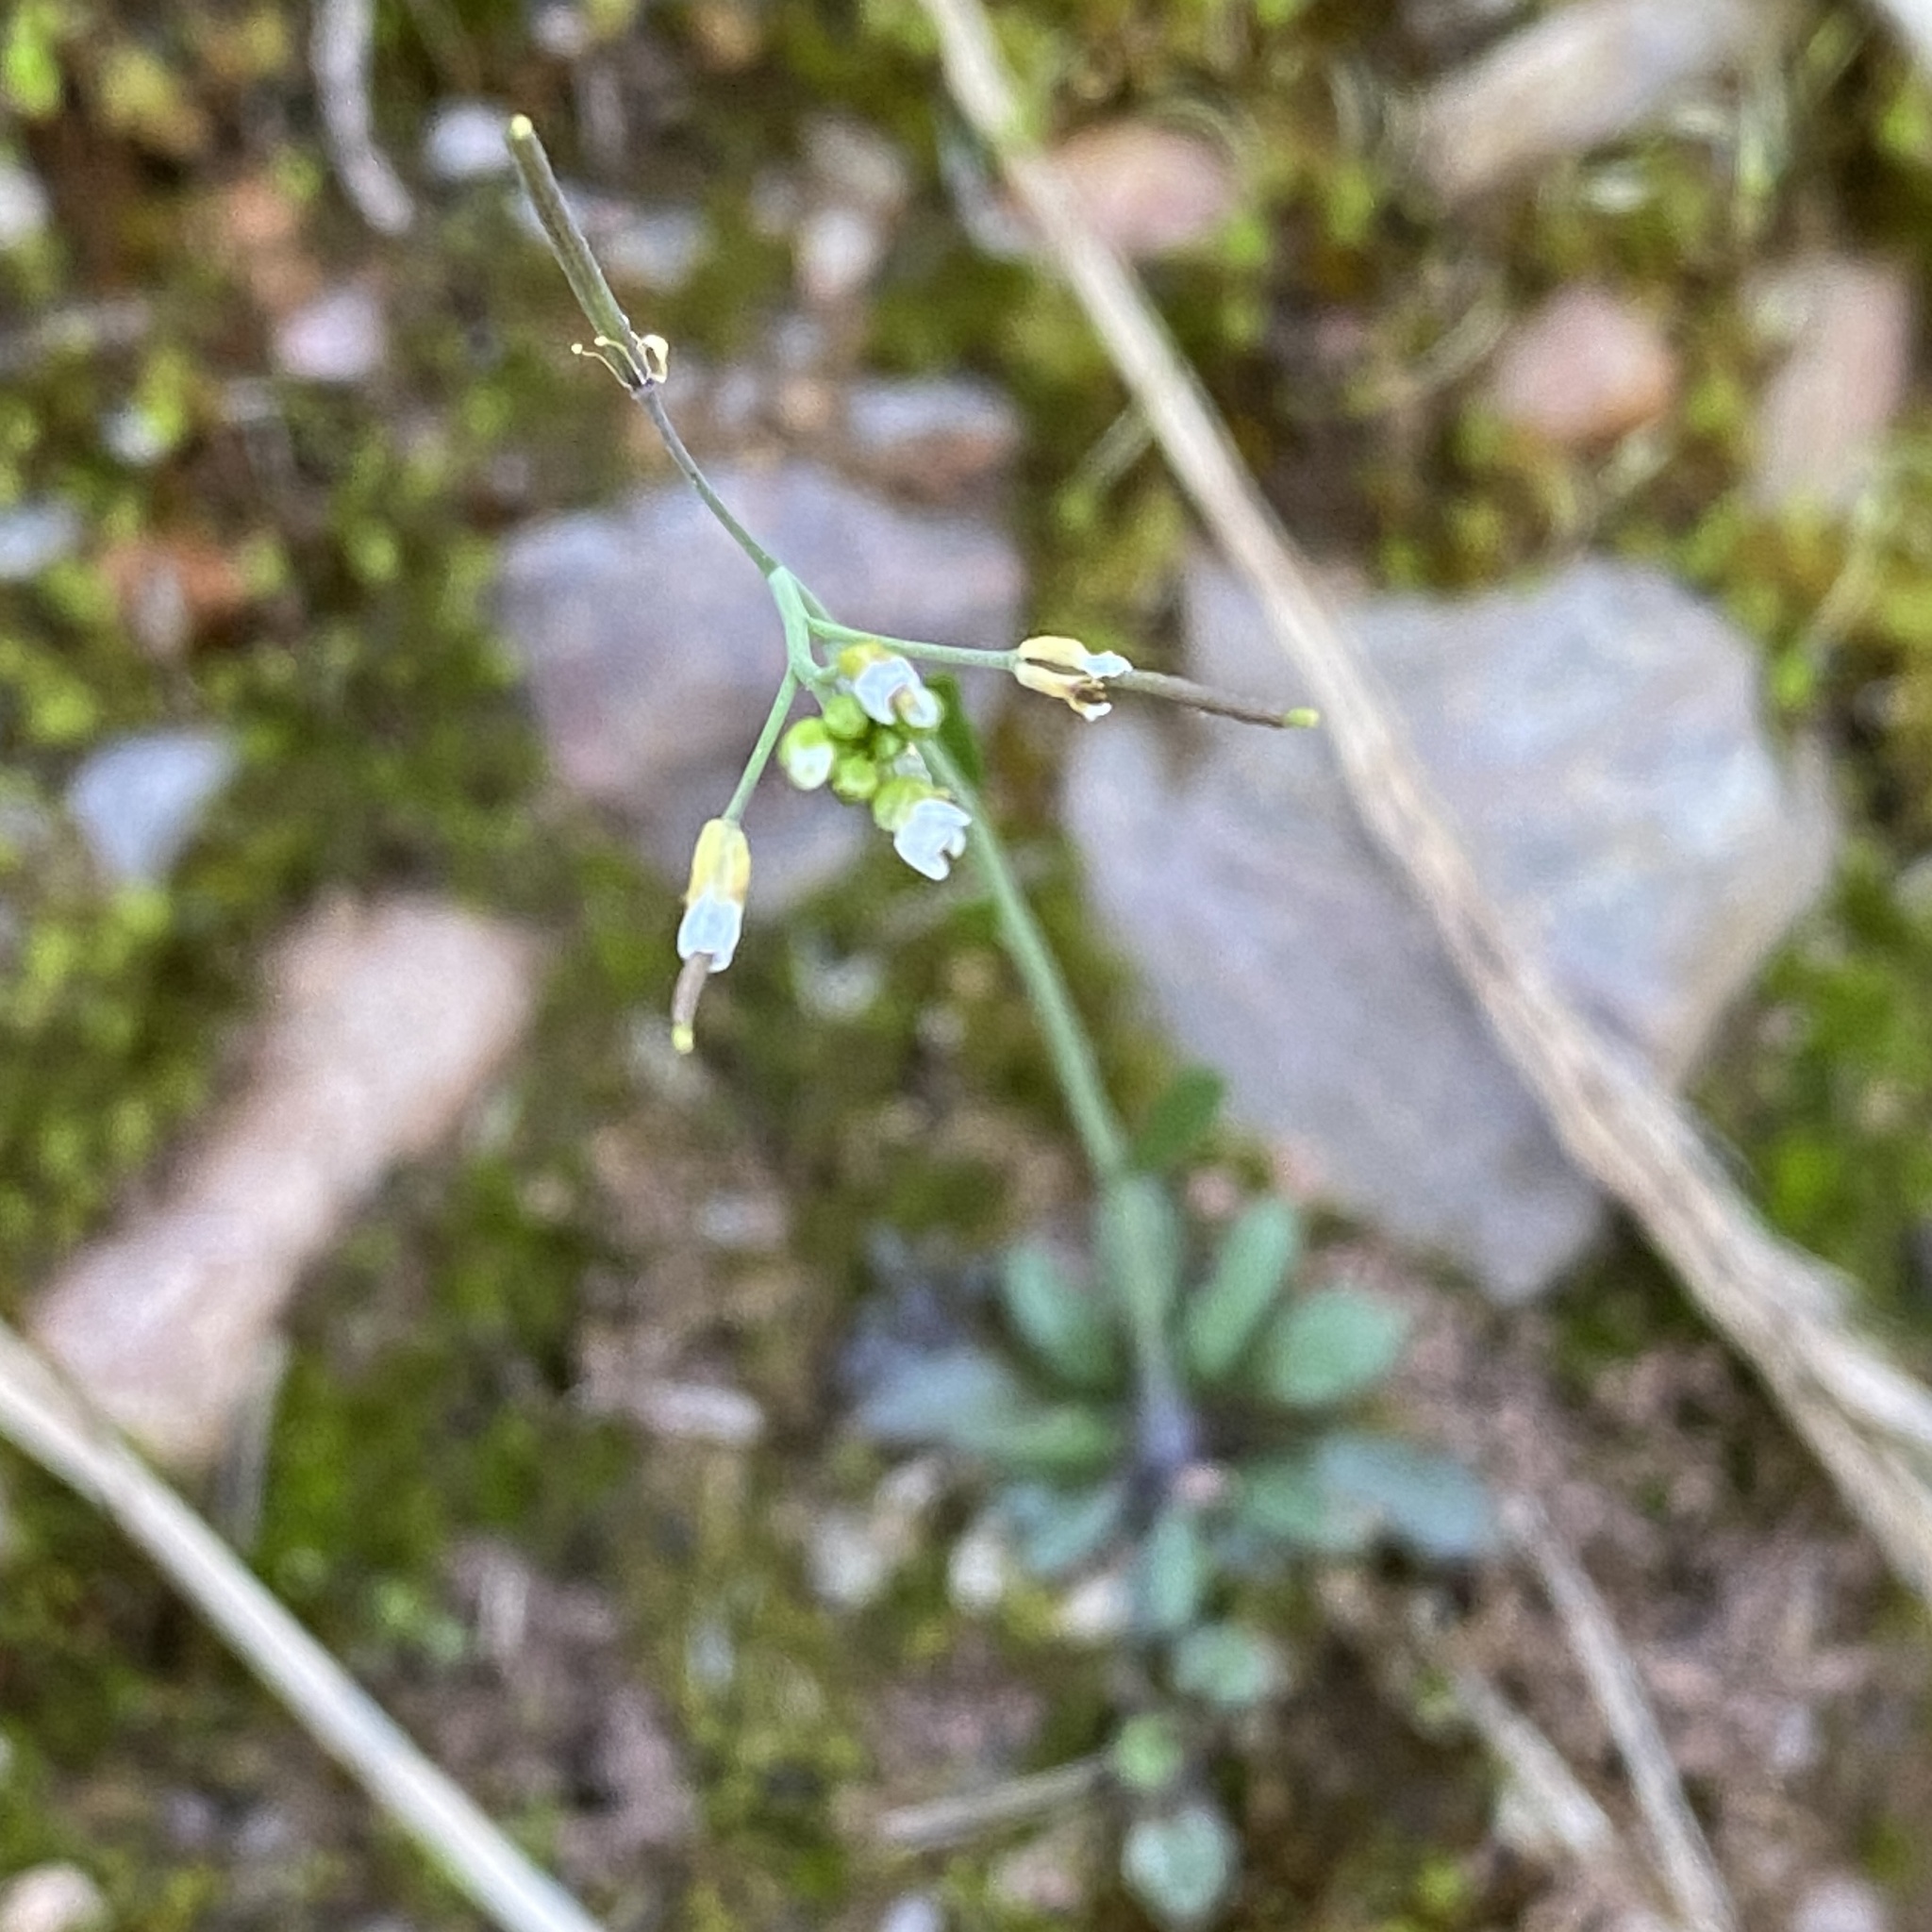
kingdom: Plantae
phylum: Tracheophyta
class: Magnoliopsida
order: Brassicales
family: Brassicaceae
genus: Arabidopsis
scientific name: Arabidopsis thaliana
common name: Thale cress
